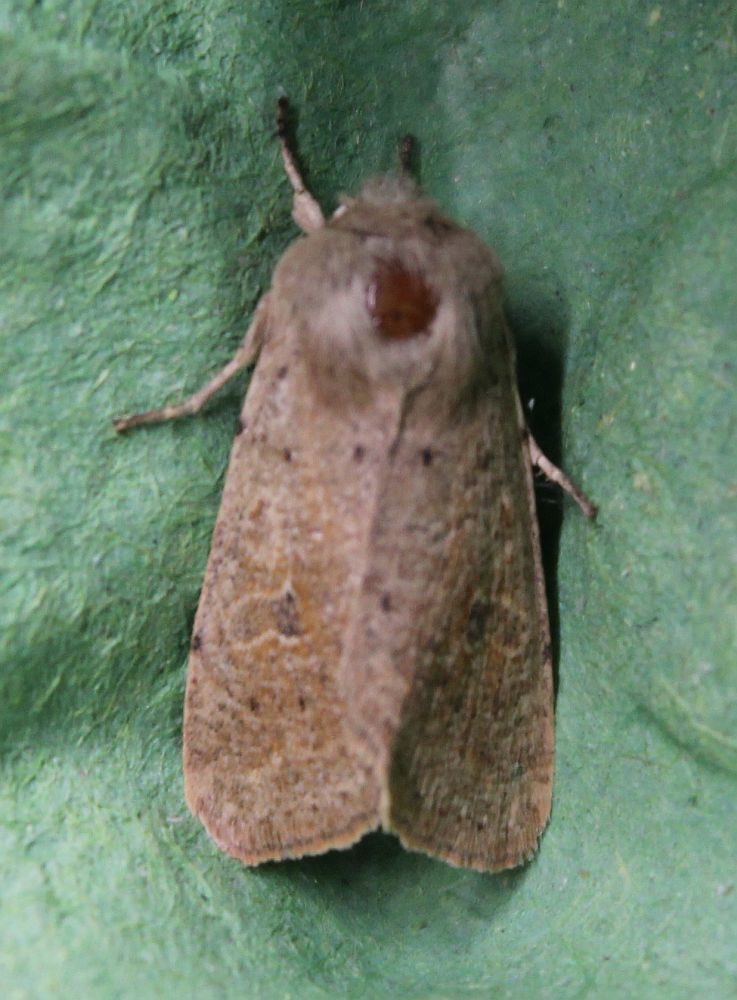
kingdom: Animalia
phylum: Arthropoda
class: Insecta
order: Lepidoptera
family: Noctuidae
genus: Orthosia
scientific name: Orthosia cruda
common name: Small quaker
